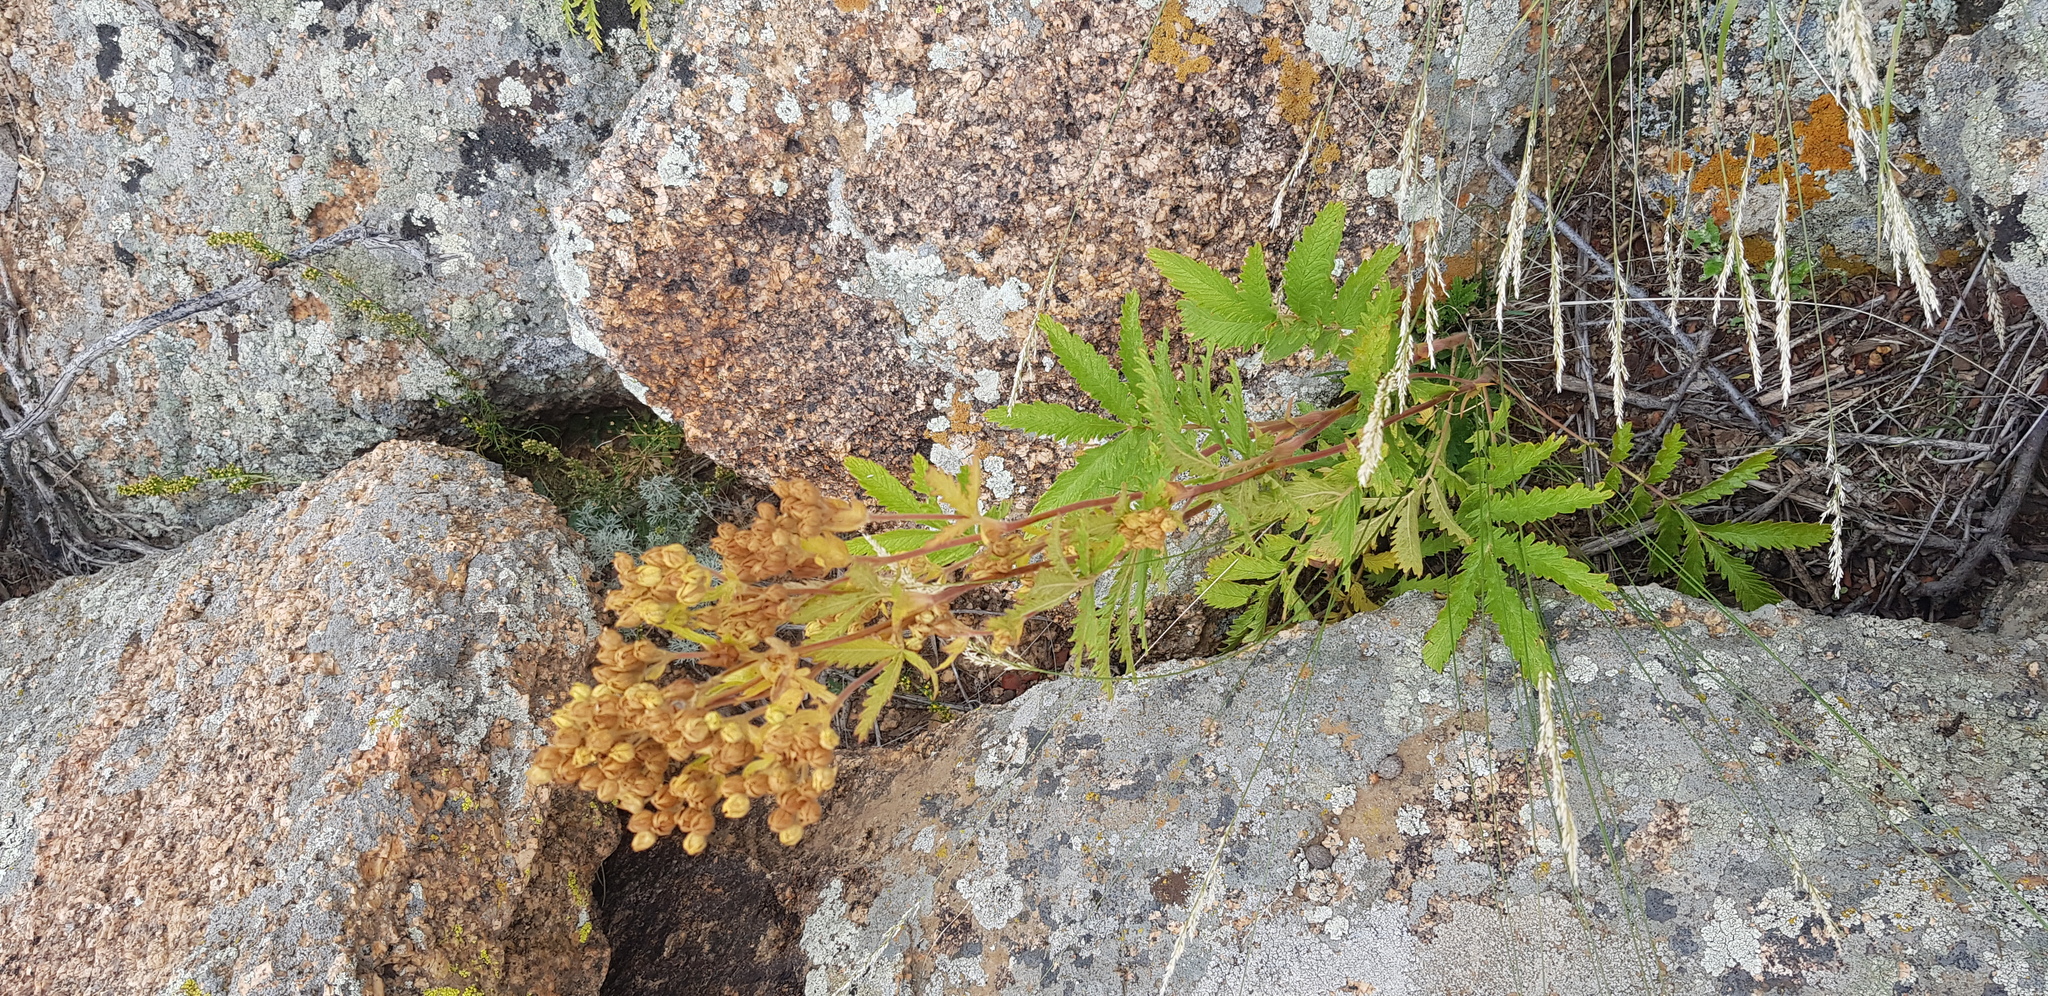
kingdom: Plantae
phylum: Tracheophyta
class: Magnoliopsida
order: Rosales
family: Rosaceae
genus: Potentilla
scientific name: Potentilla tanacetifolia
